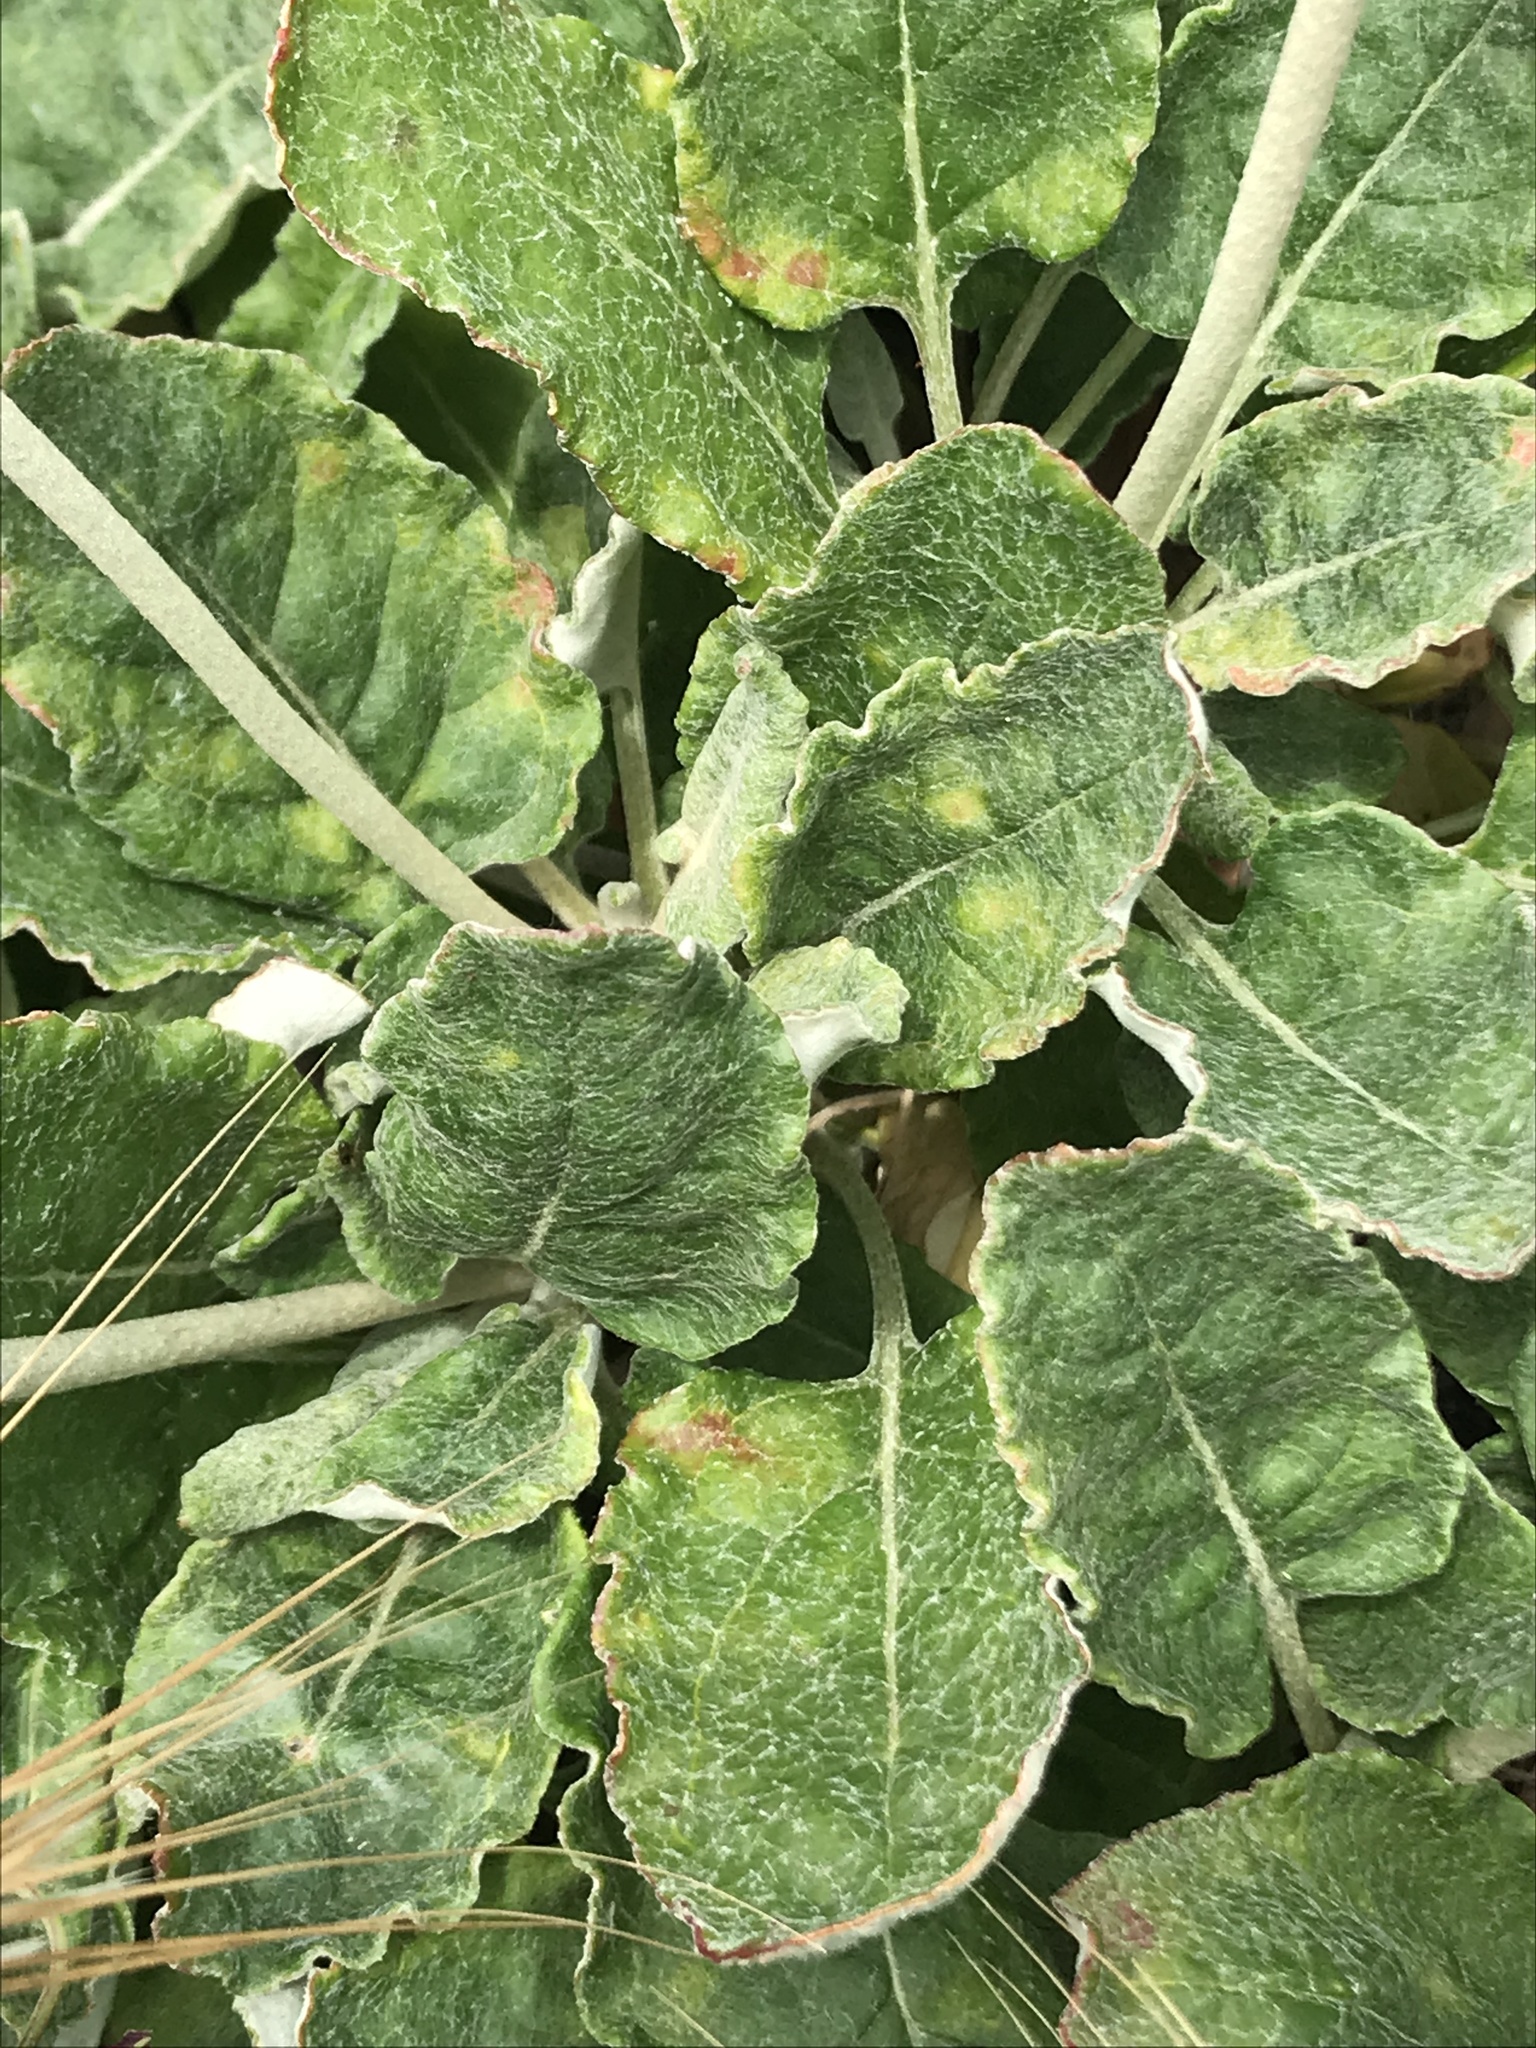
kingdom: Plantae
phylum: Tracheophyta
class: Magnoliopsida
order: Caryophyllales
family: Polygonaceae
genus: Eriogonum
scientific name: Eriogonum latifolium
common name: Seaside wild buckwheat
